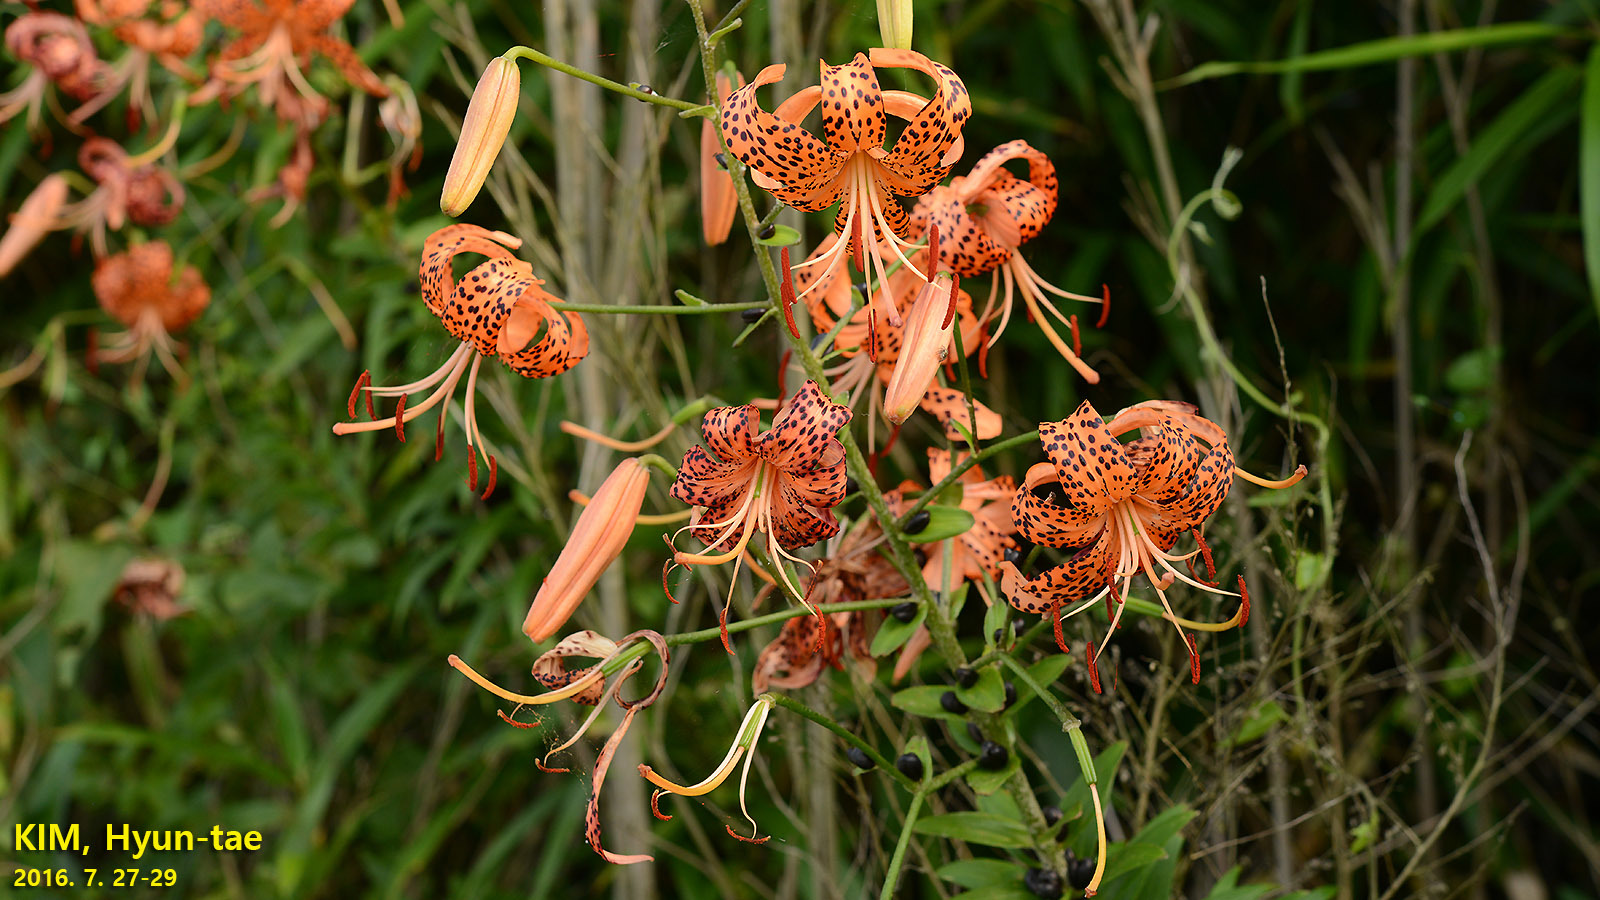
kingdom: Plantae
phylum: Tracheophyta
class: Liliopsida
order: Liliales
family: Liliaceae
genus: Lilium
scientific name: Lilium lancifolium
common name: Tiger lily
